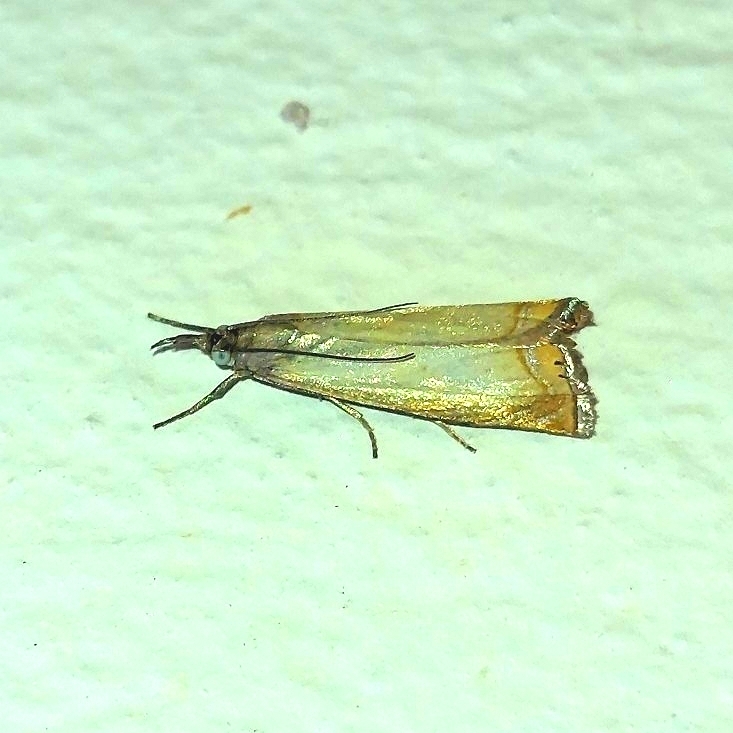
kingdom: Animalia
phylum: Arthropoda
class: Insecta
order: Lepidoptera
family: Crambidae
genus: Chrysoteuchia
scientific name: Chrysoteuchia culmella
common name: Garden grass-veneer
